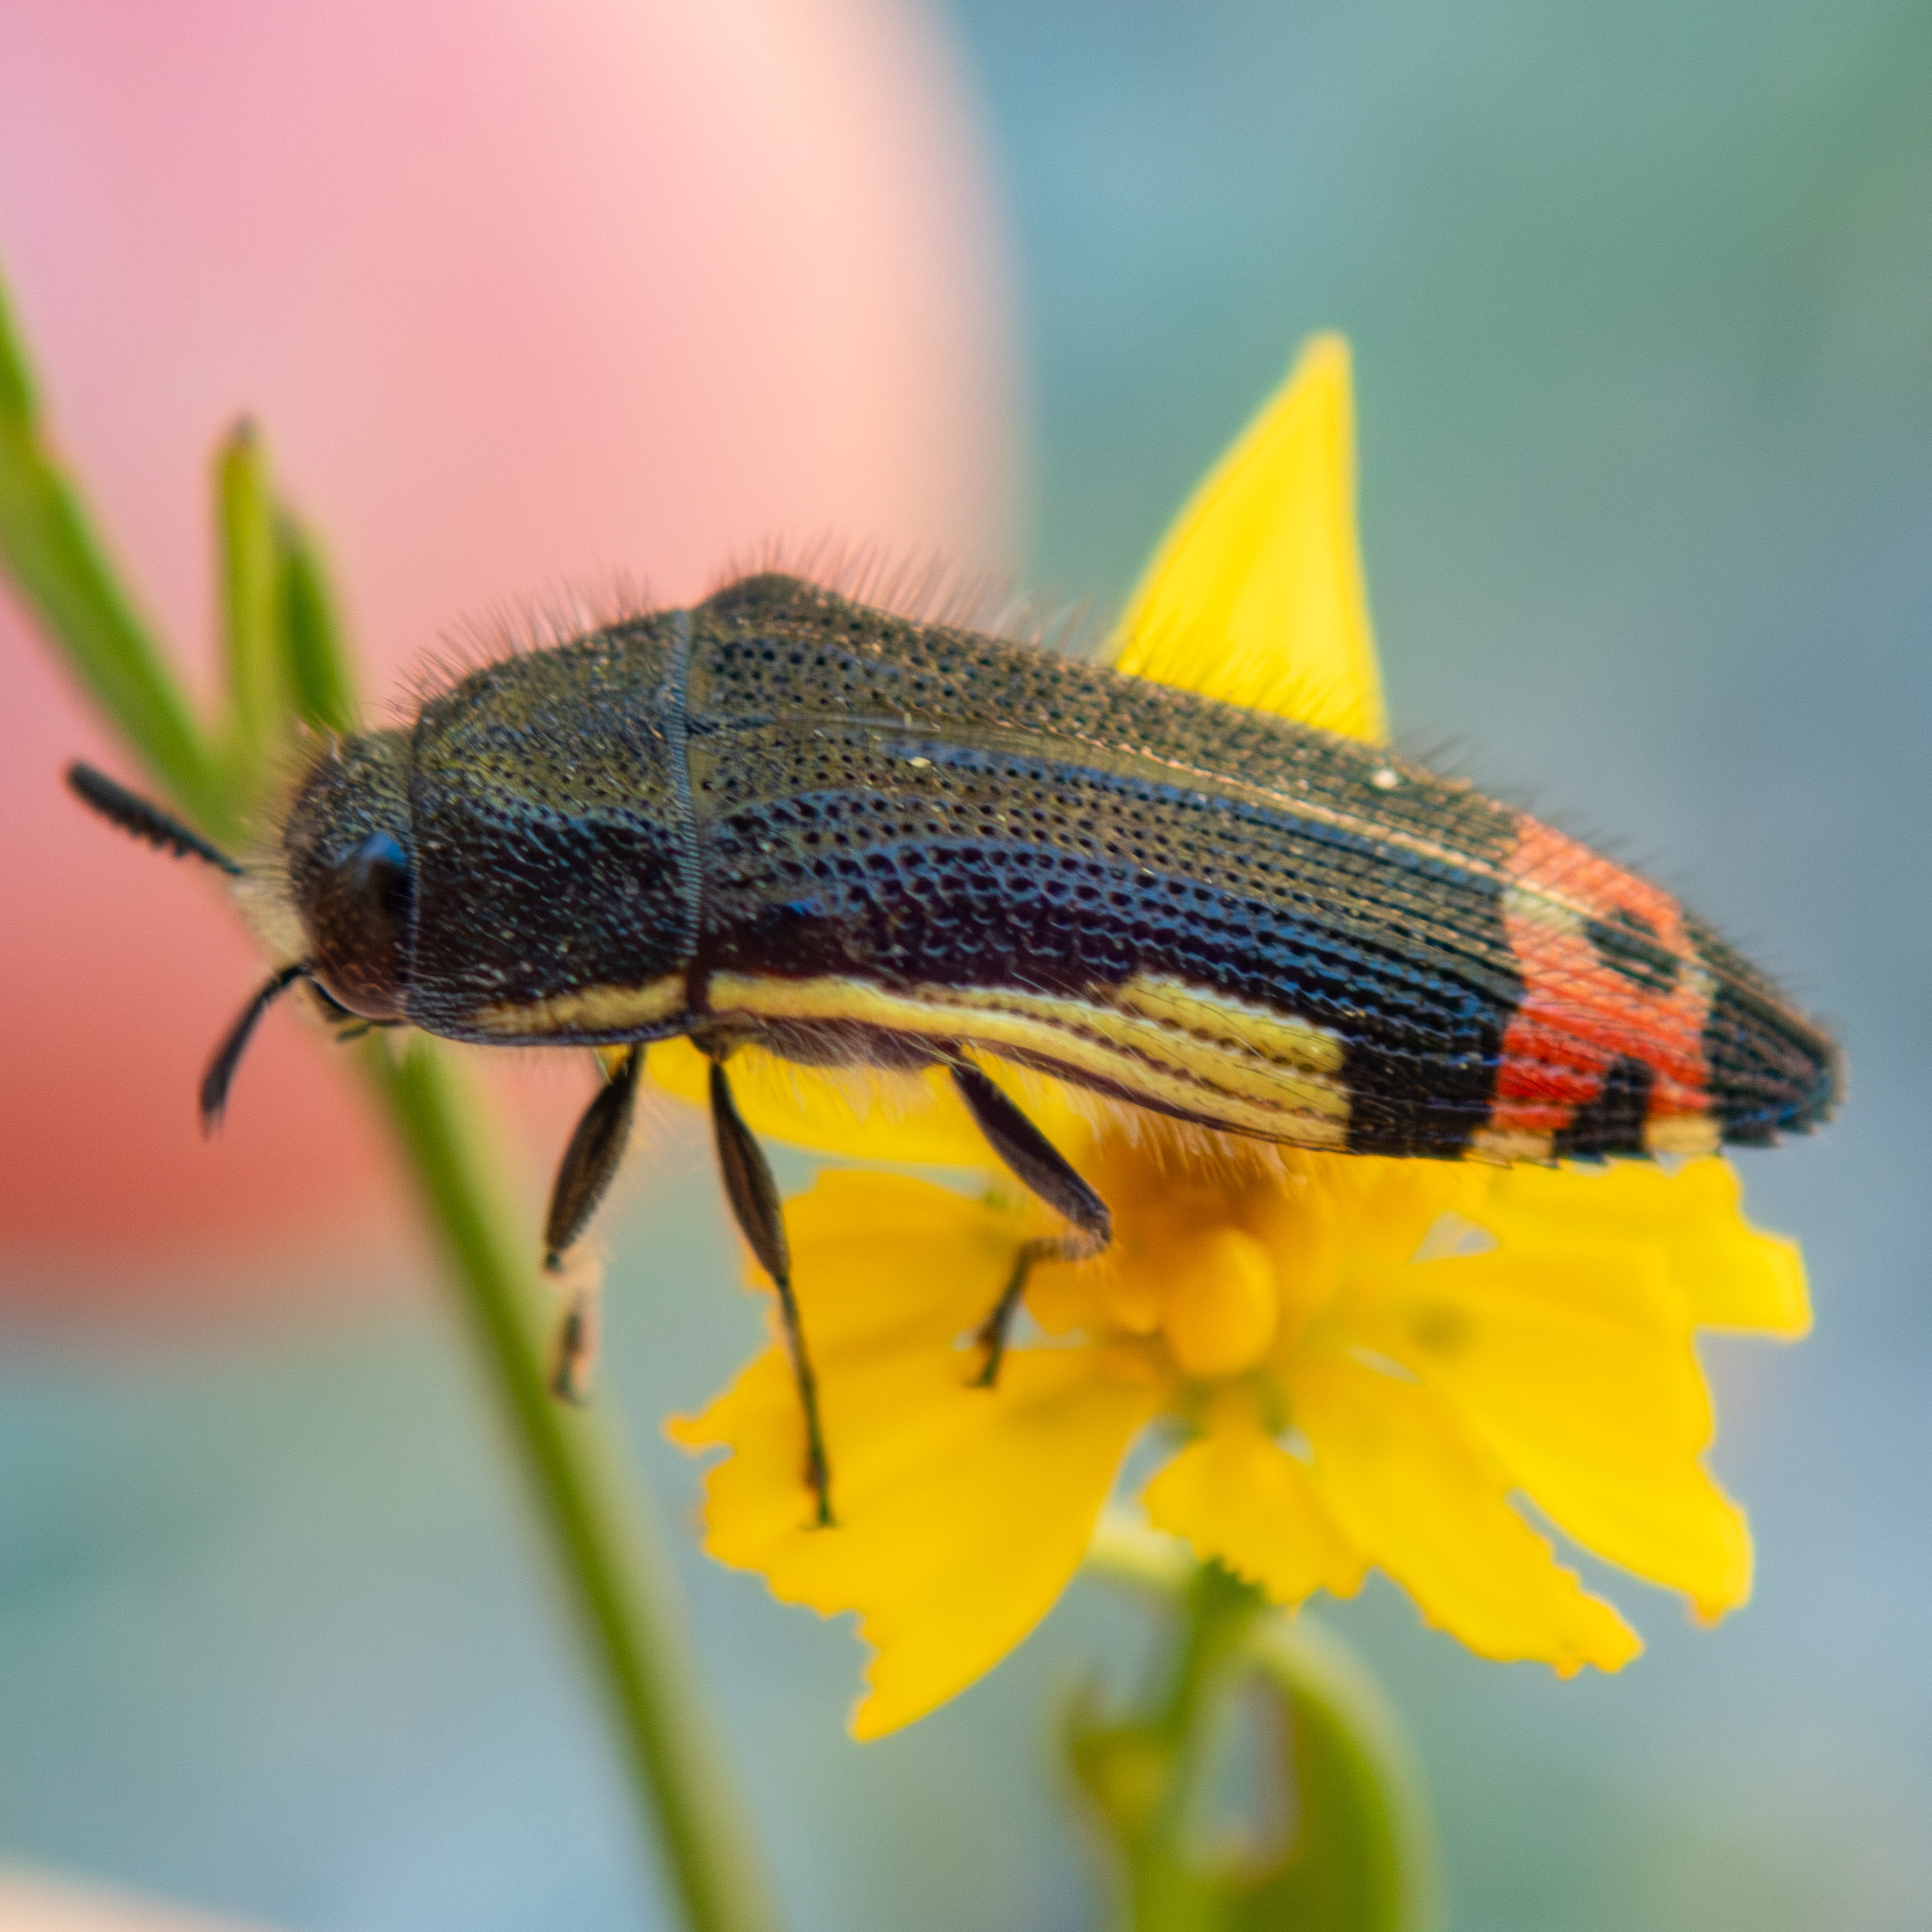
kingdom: Animalia
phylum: Arthropoda
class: Insecta
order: Coleoptera
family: Buprestidae
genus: Acmaeodera
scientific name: Acmaeodera flavomarginata
